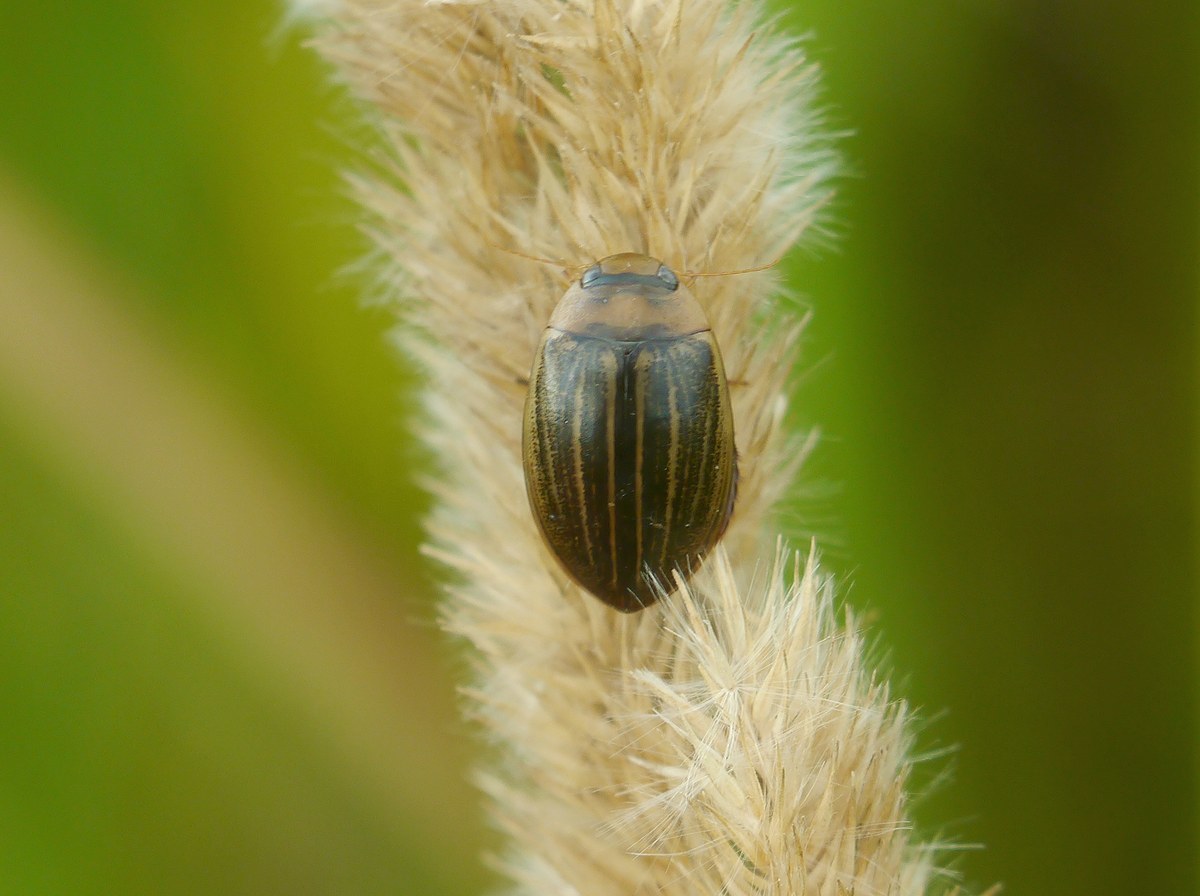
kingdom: Animalia
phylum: Arthropoda
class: Insecta
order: Coleoptera
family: Dytiscidae
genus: Hydaticus
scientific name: Hydaticus grammicus
